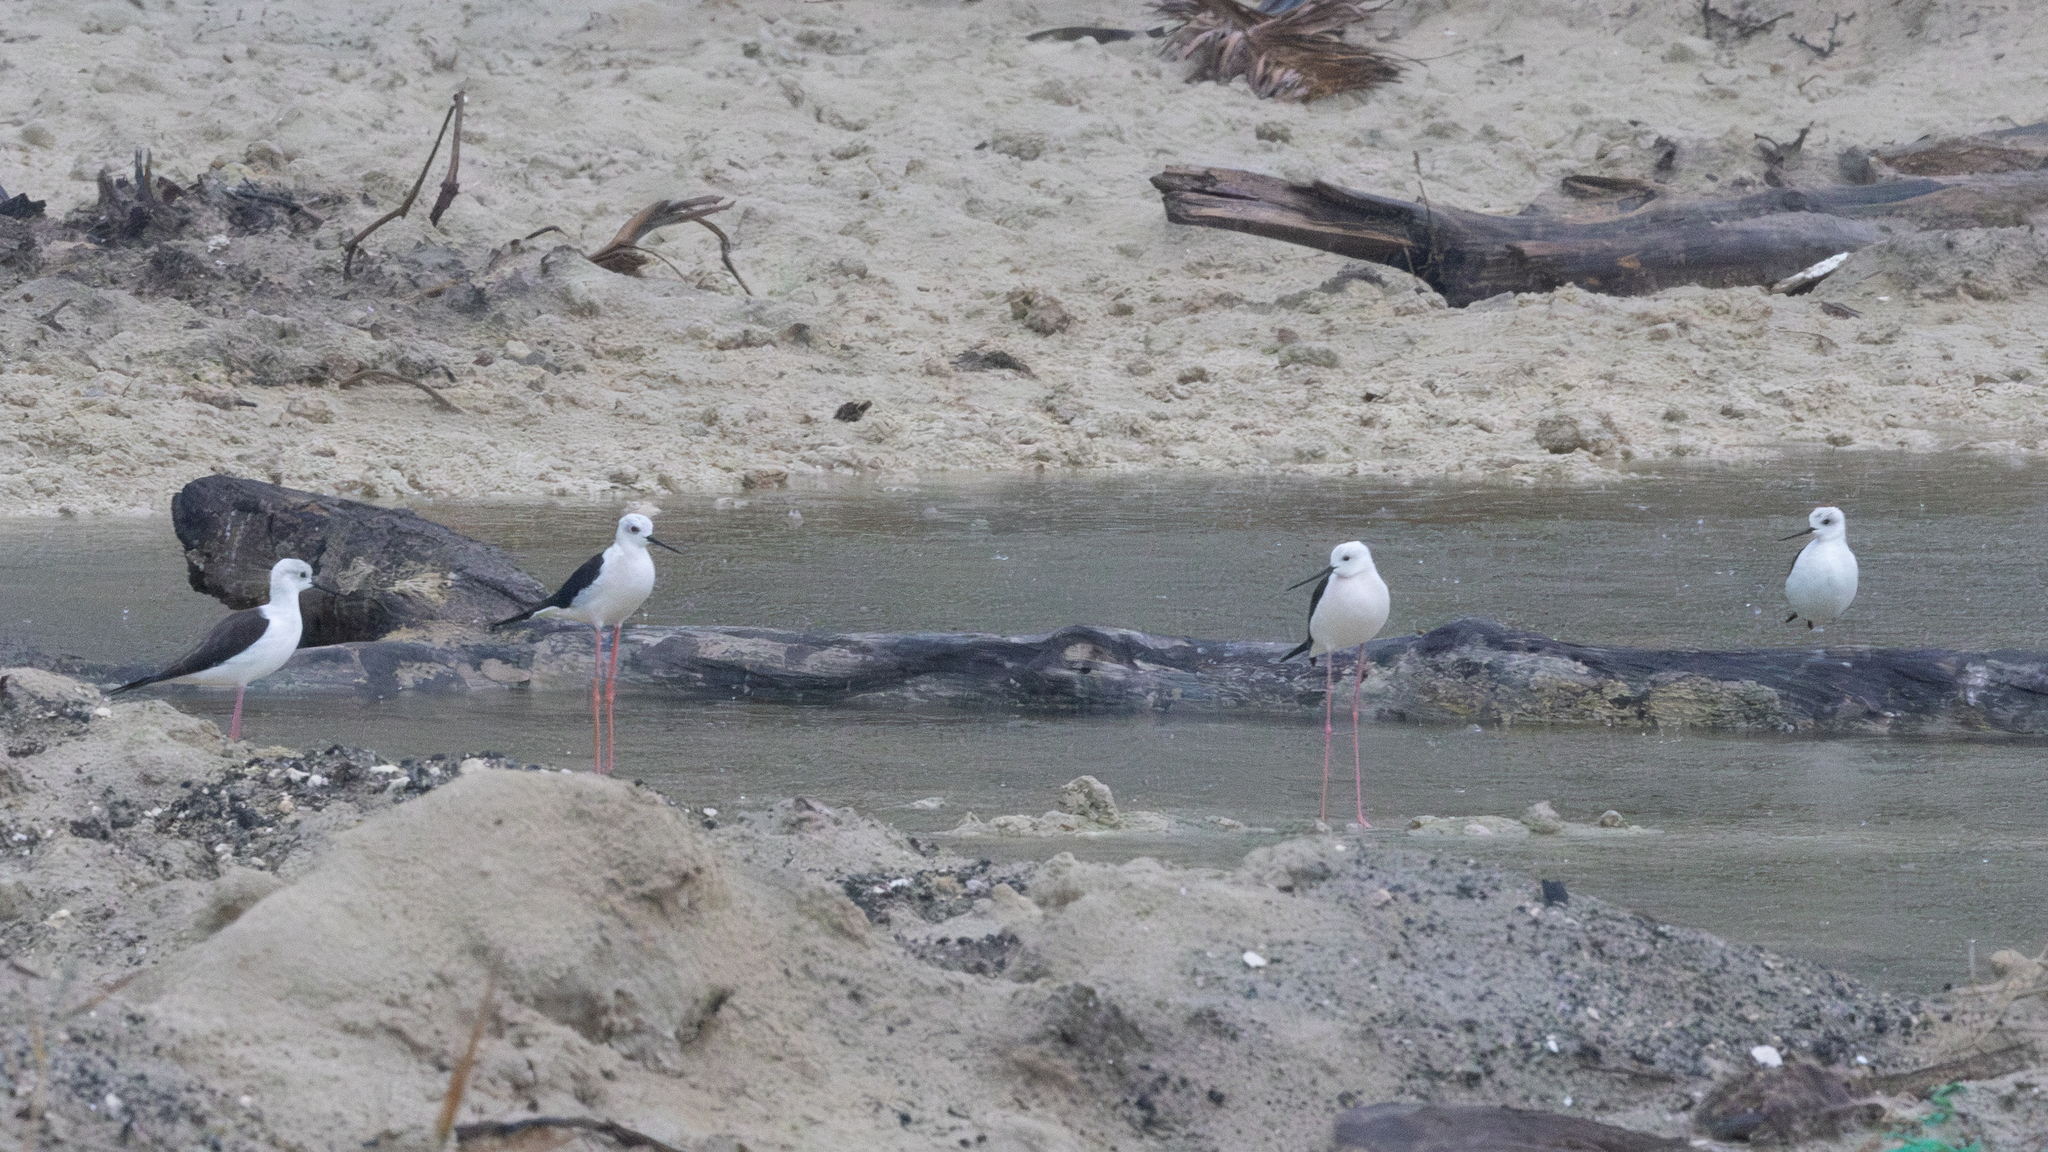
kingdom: Animalia
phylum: Chordata
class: Aves
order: Charadriiformes
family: Recurvirostridae
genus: Himantopus
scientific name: Himantopus himantopus
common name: Black-winged stilt
